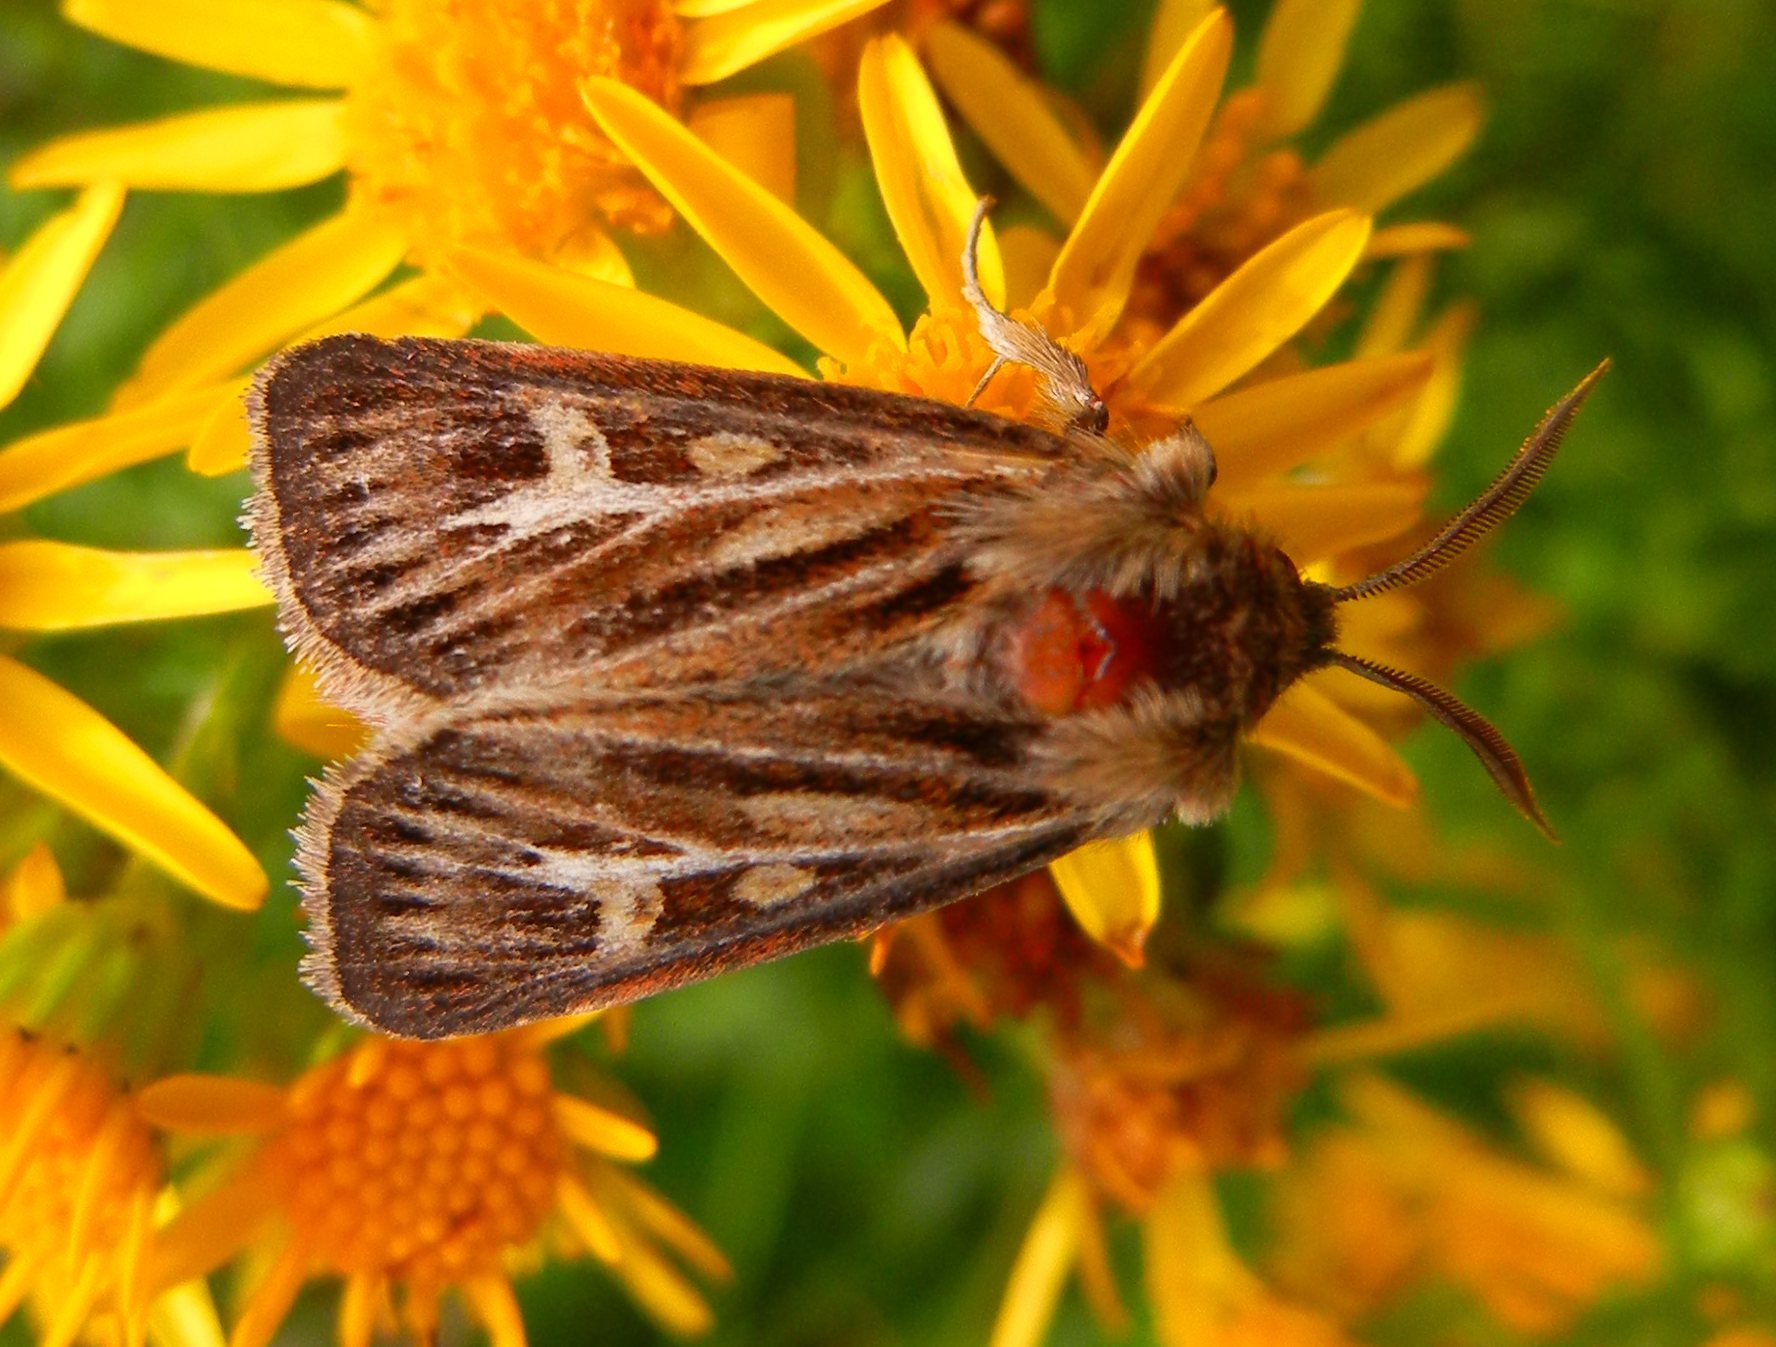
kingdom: Animalia
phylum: Arthropoda
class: Insecta
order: Lepidoptera
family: Noctuidae
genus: Cerapteryx
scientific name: Cerapteryx graminis
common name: Antler moth
